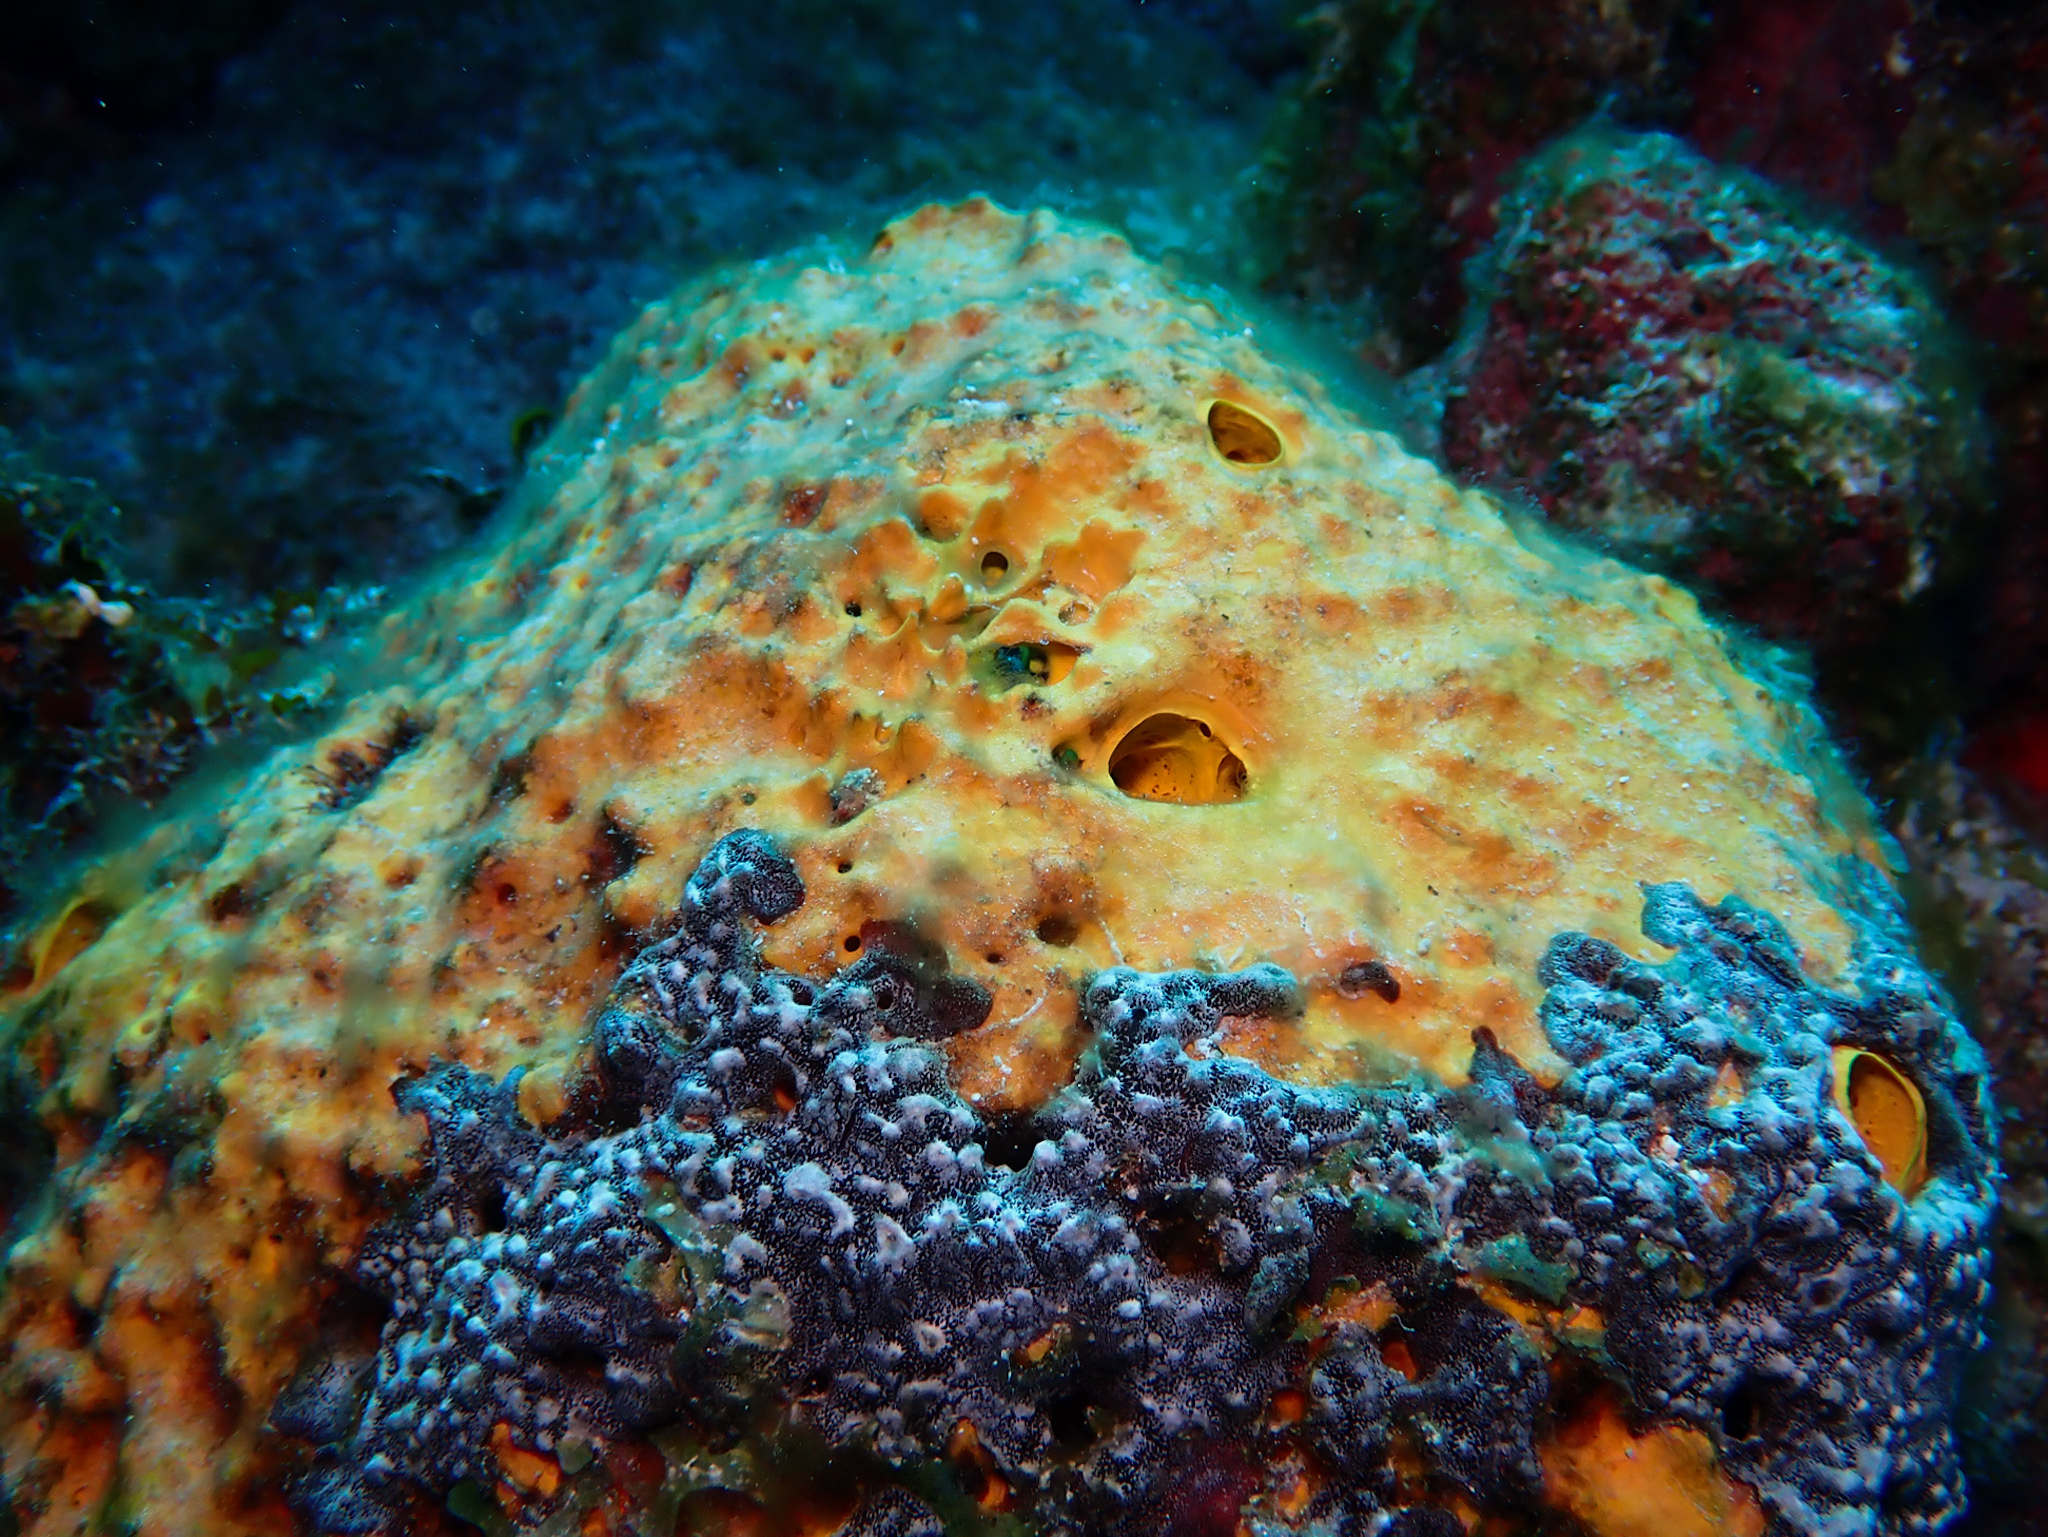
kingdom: Animalia
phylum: Porifera
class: Demospongiae
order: Verongiida
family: Aplysinidae
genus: Aiolochroia
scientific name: Aiolochroia crassa
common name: Branching tube sponge
